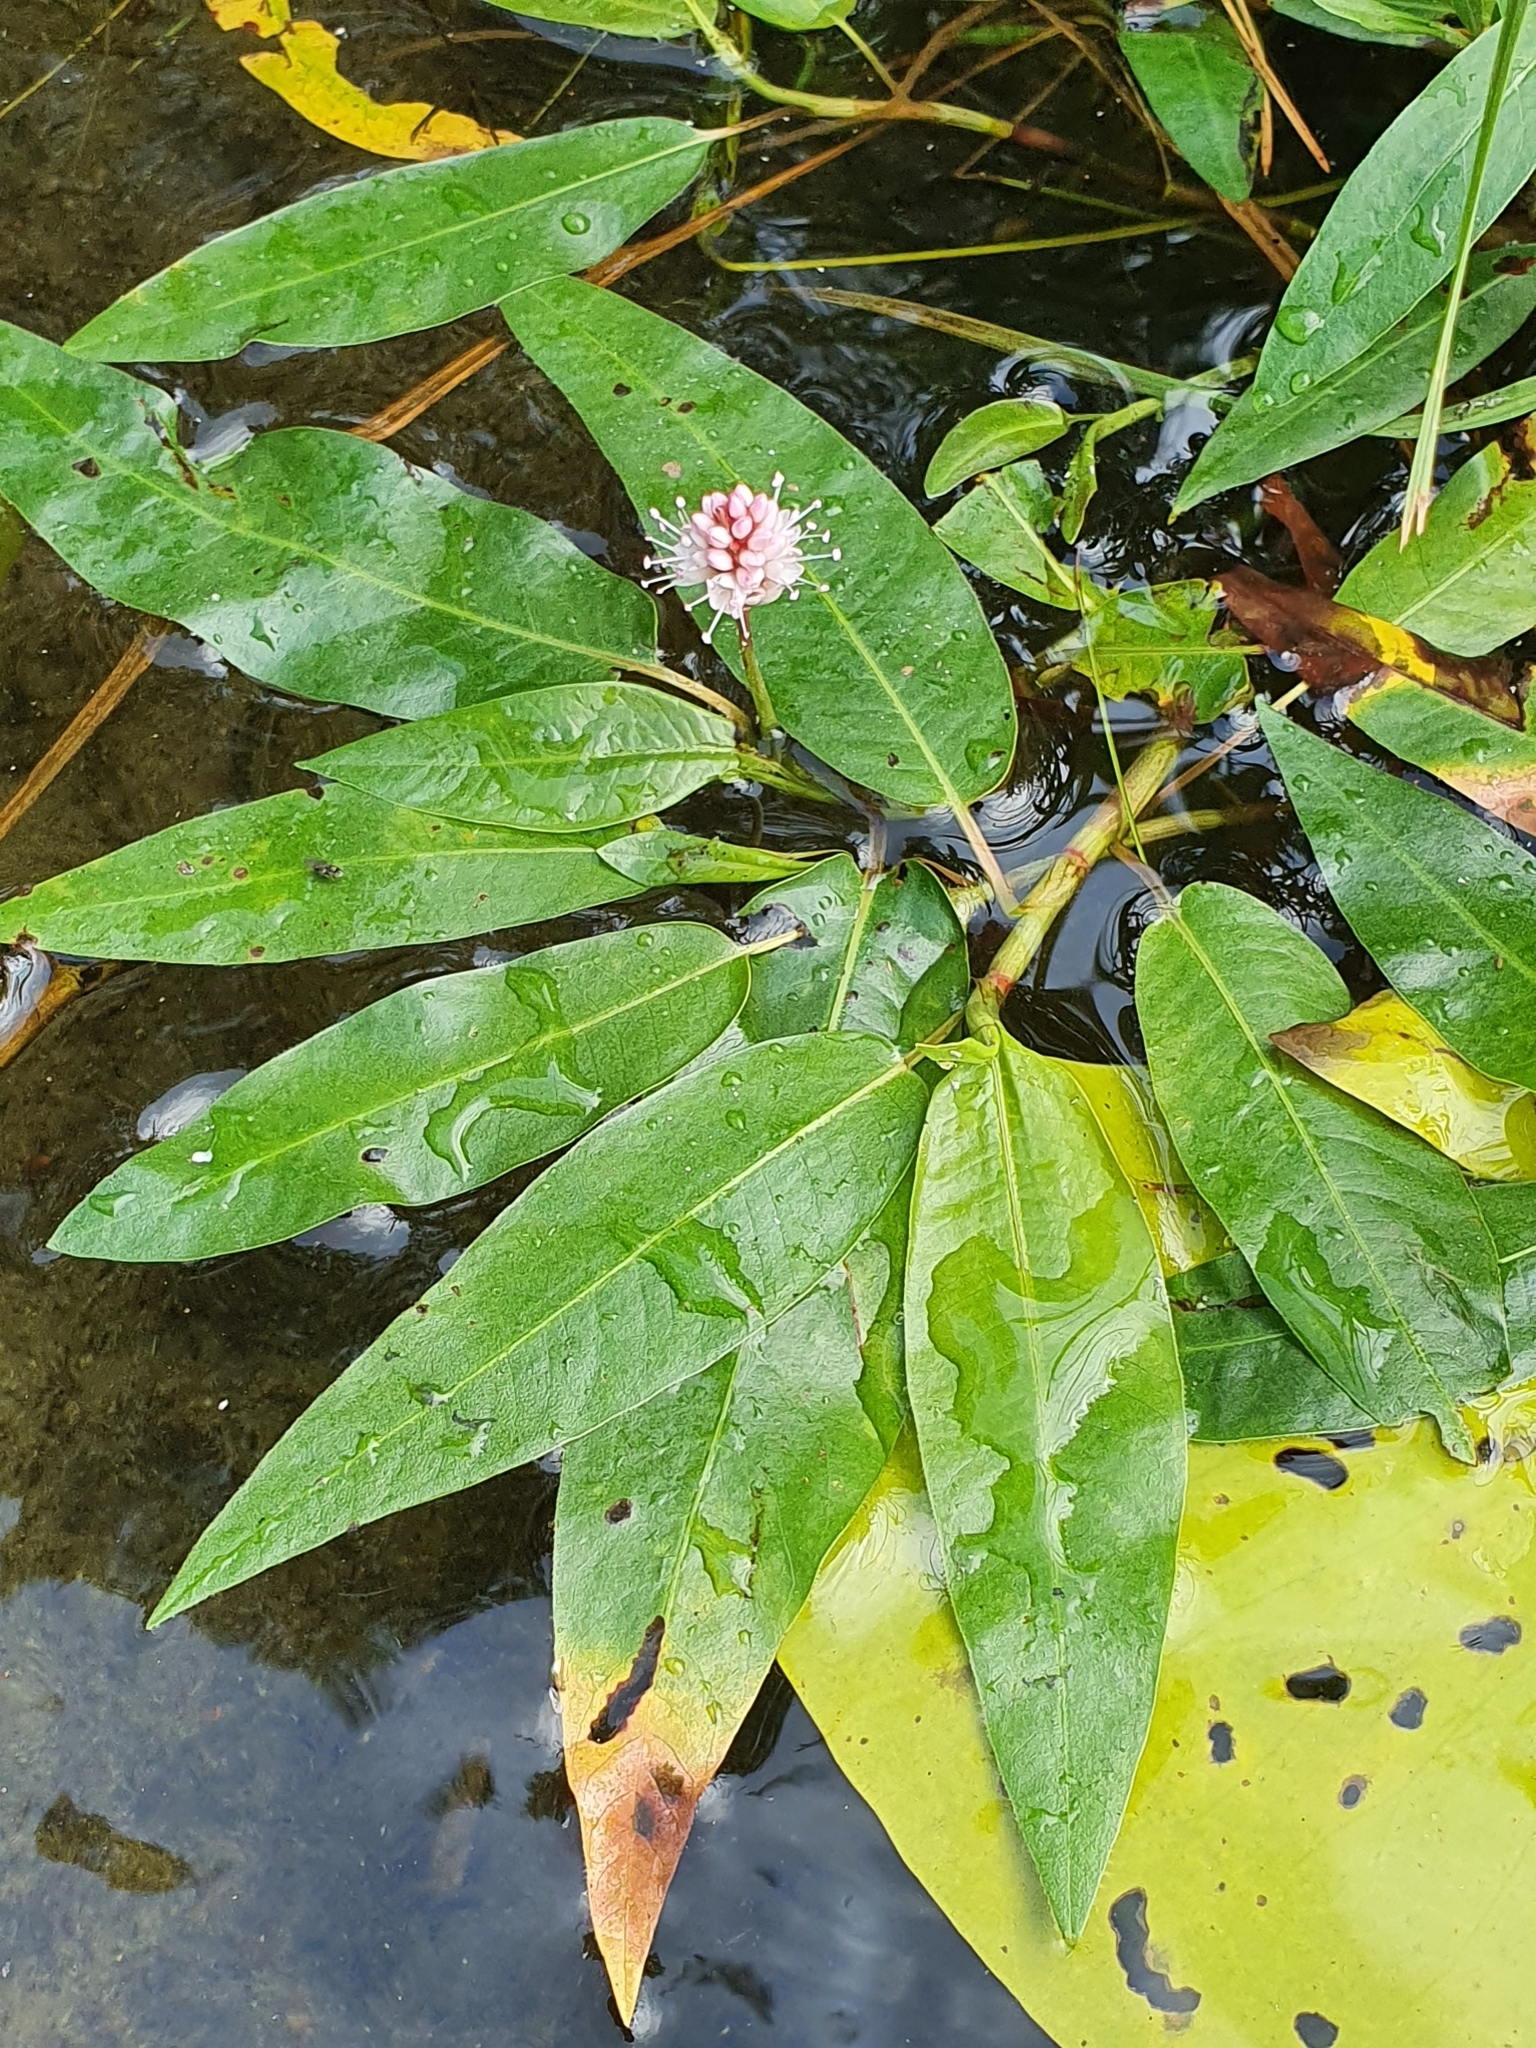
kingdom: Plantae
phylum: Tracheophyta
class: Magnoliopsida
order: Caryophyllales
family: Polygonaceae
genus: Persicaria
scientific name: Persicaria amphibia
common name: Amphibious bistort
